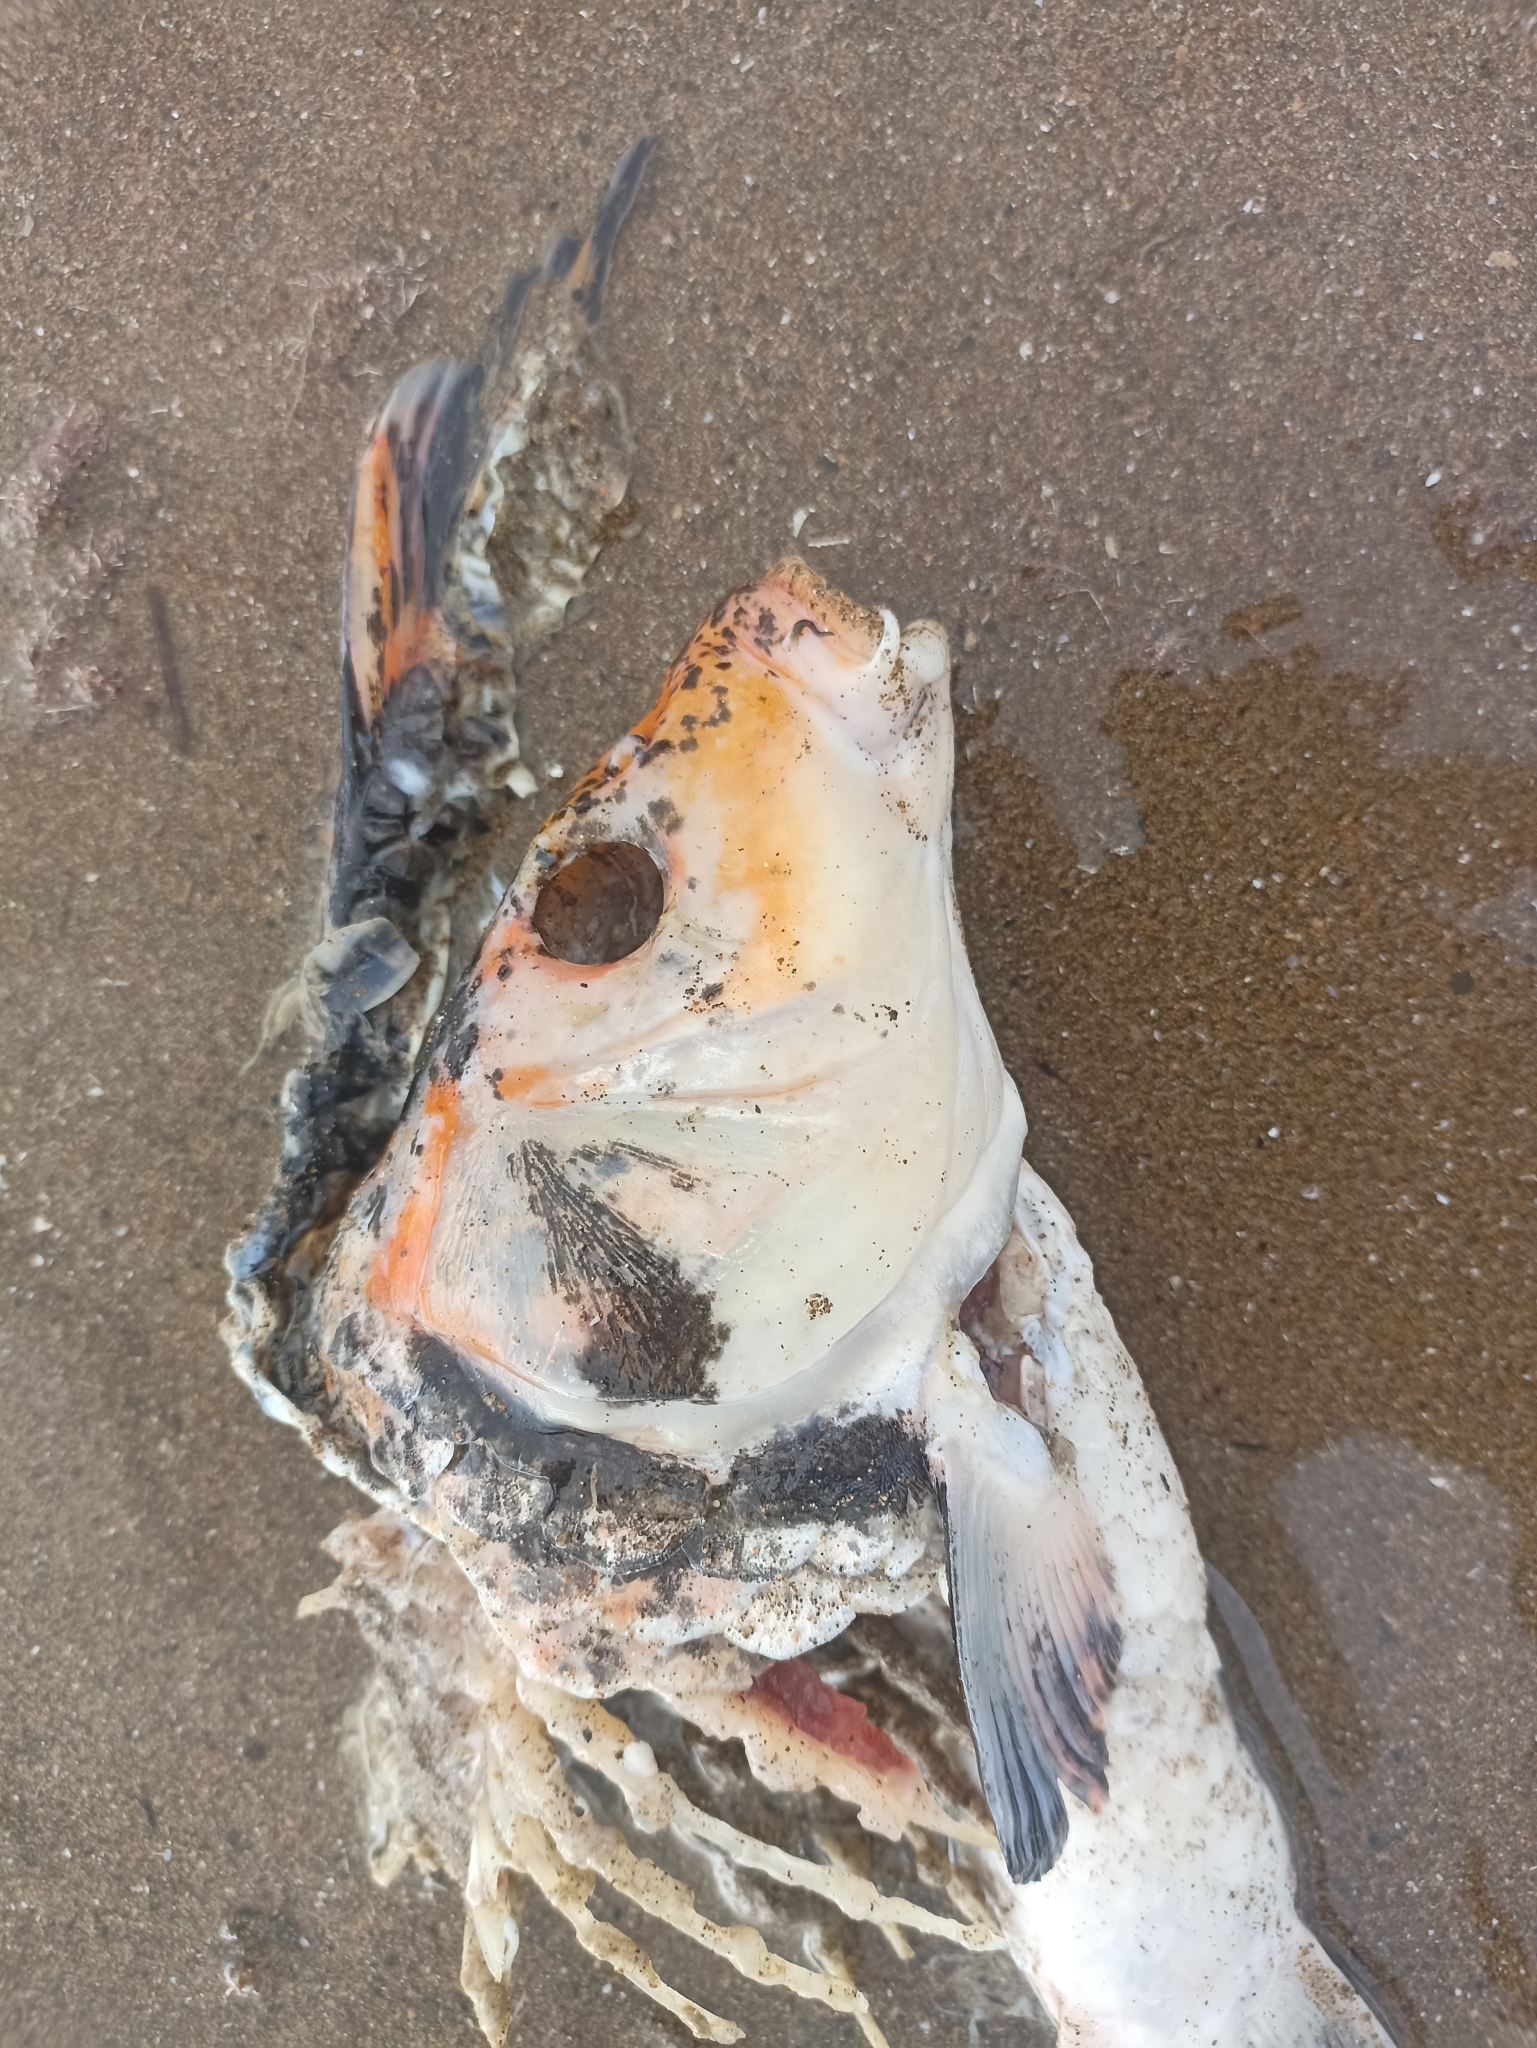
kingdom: Animalia
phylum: Chordata
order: Cypriniformes
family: Cyprinidae
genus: Cyprinus
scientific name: Cyprinus rubrofuscus
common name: Koi
